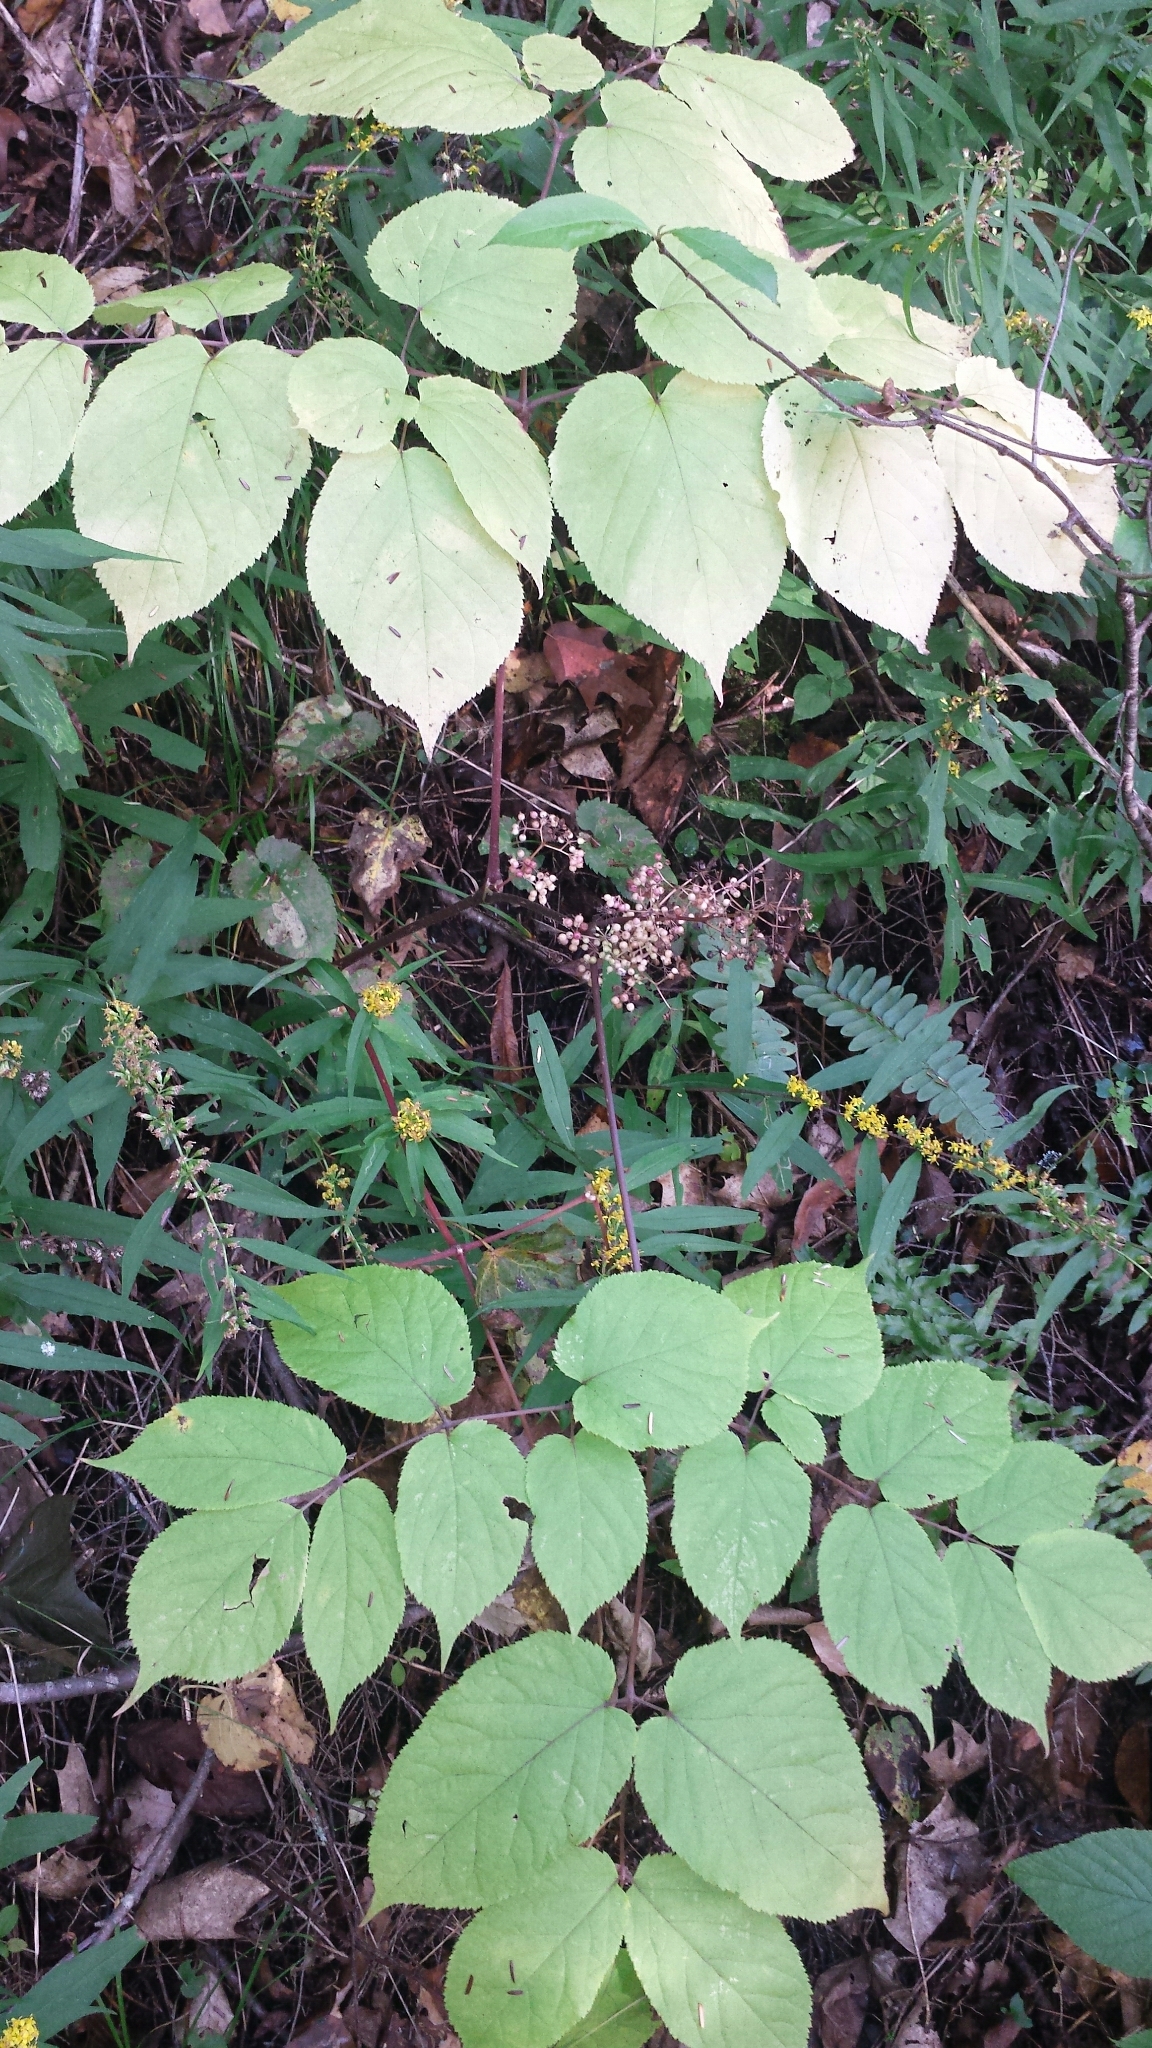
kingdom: Plantae
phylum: Tracheophyta
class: Magnoliopsida
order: Apiales
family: Araliaceae
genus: Aralia
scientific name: Aralia racemosa
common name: American-spikenard
